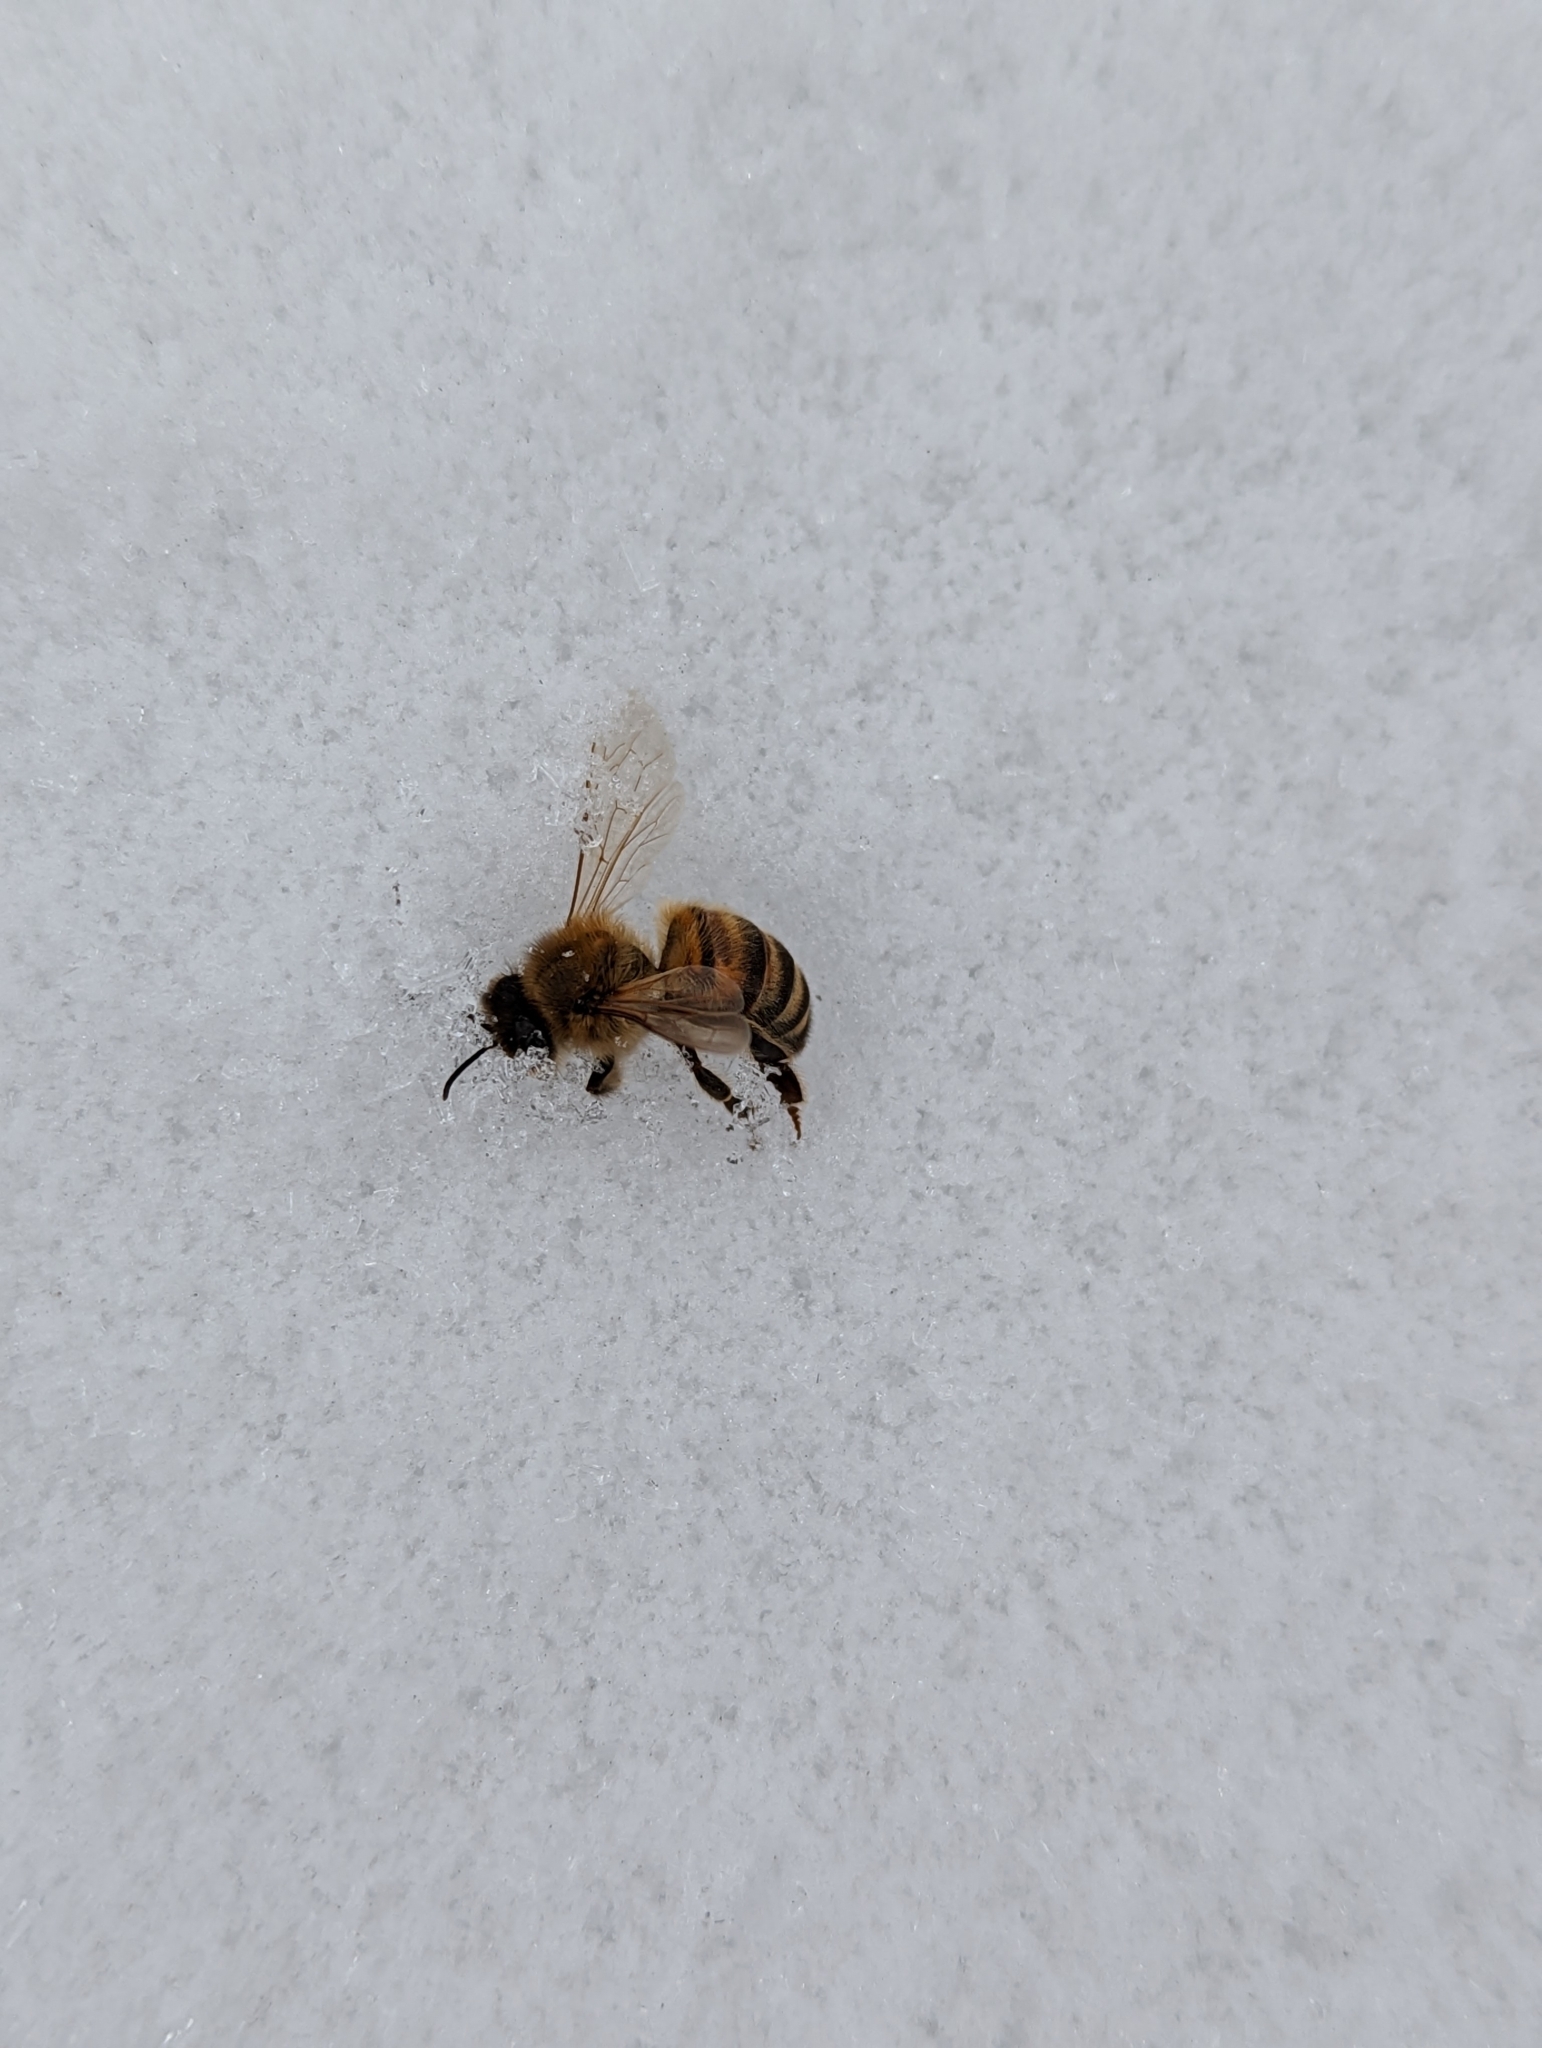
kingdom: Animalia
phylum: Arthropoda
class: Insecta
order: Hymenoptera
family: Apidae
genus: Apis
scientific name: Apis mellifera
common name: Honey bee
